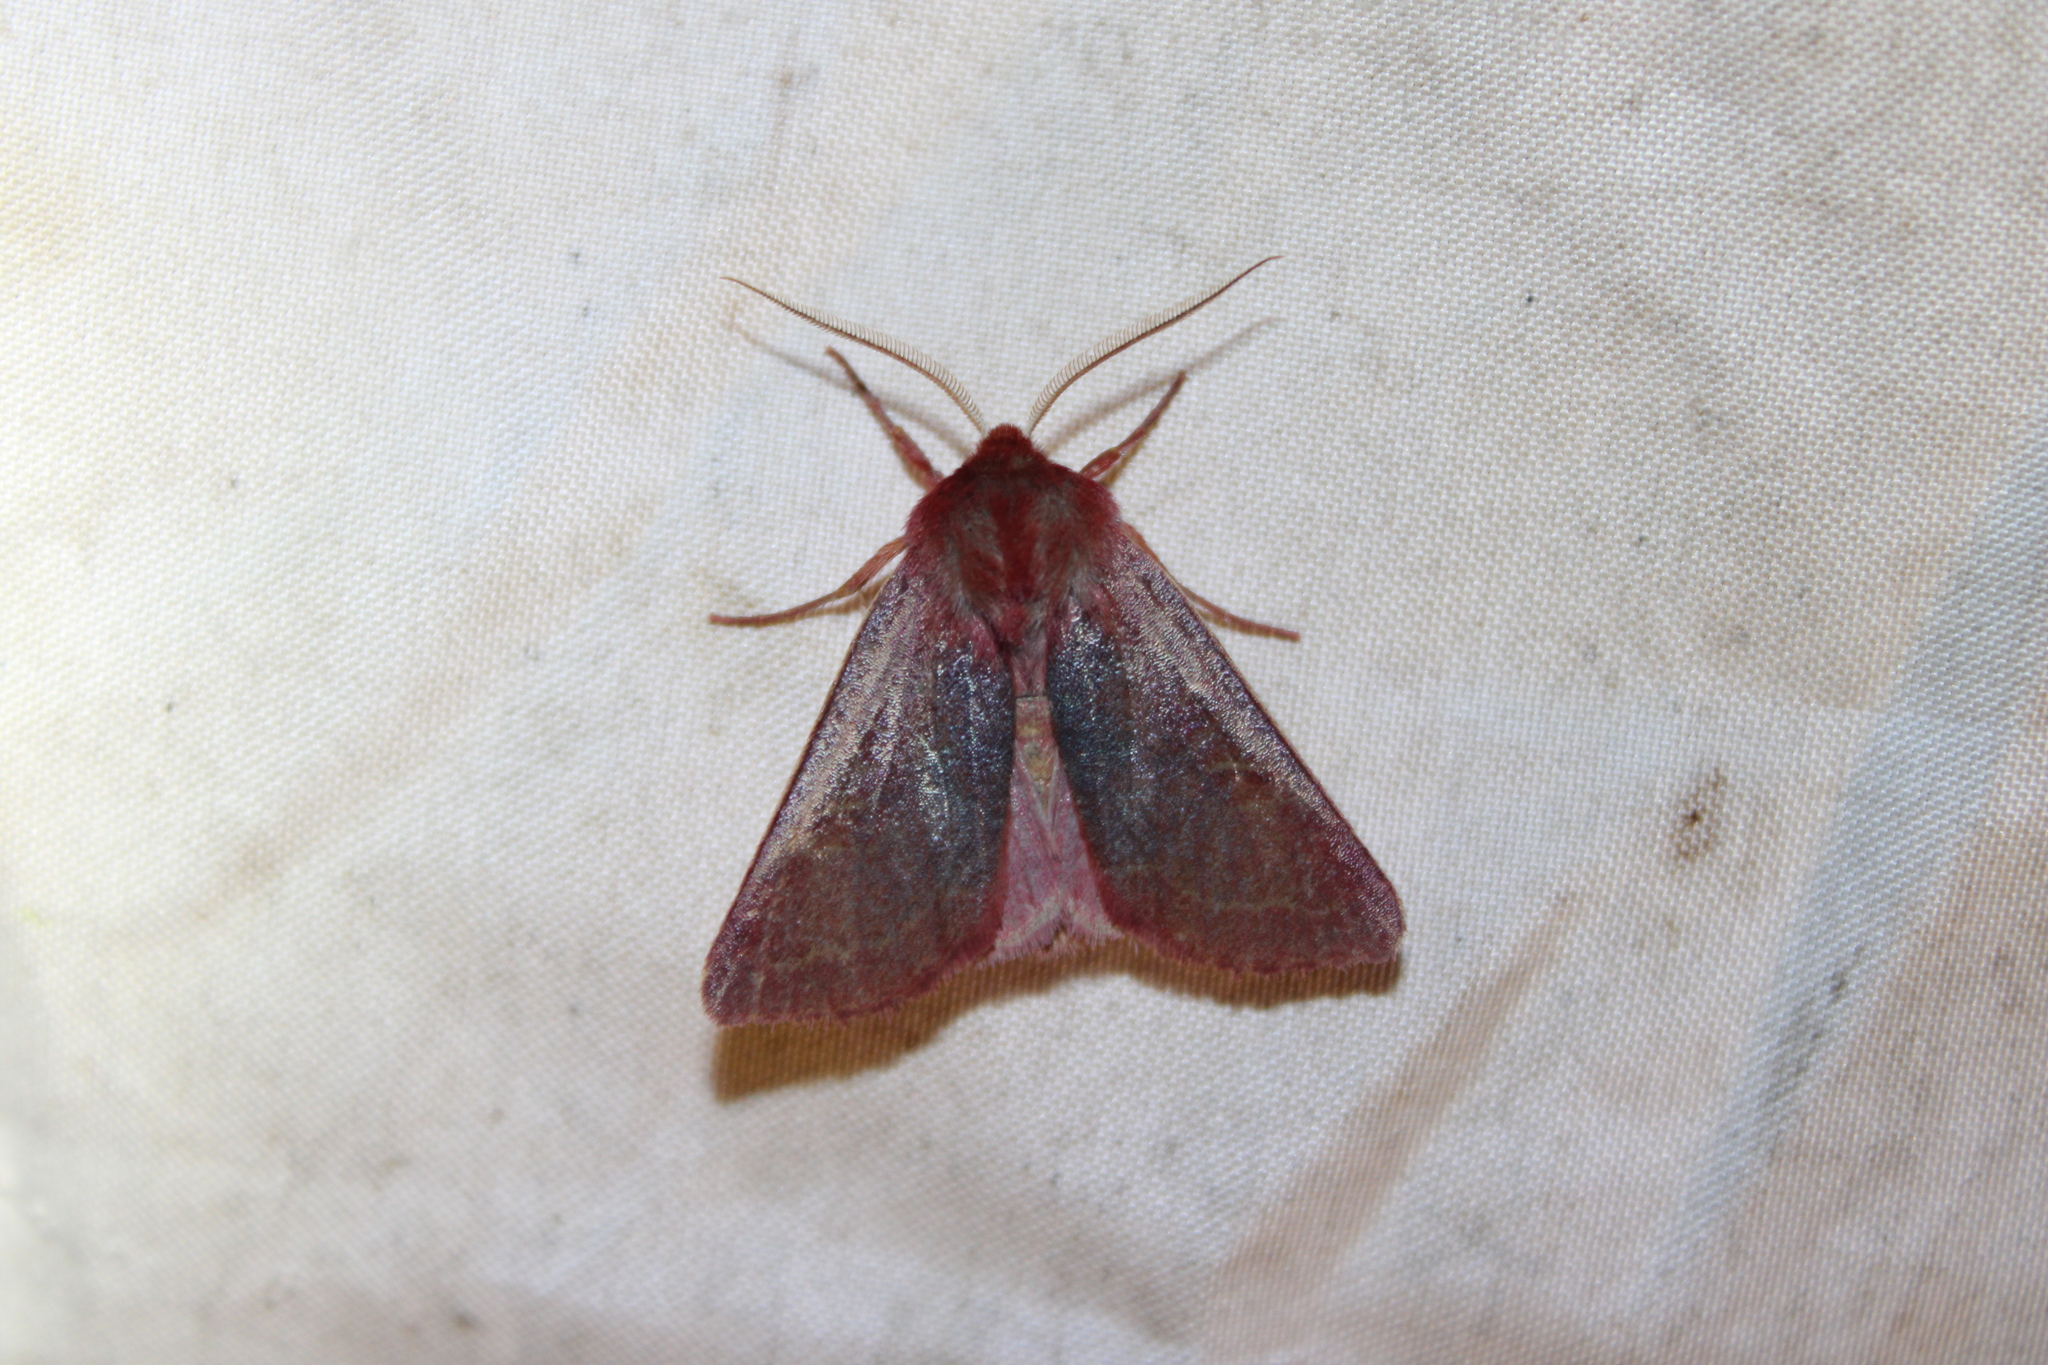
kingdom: Animalia
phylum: Arthropoda
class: Insecta
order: Lepidoptera
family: Noctuidae
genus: Psectraglaea
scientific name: Psectraglaea carnosa
